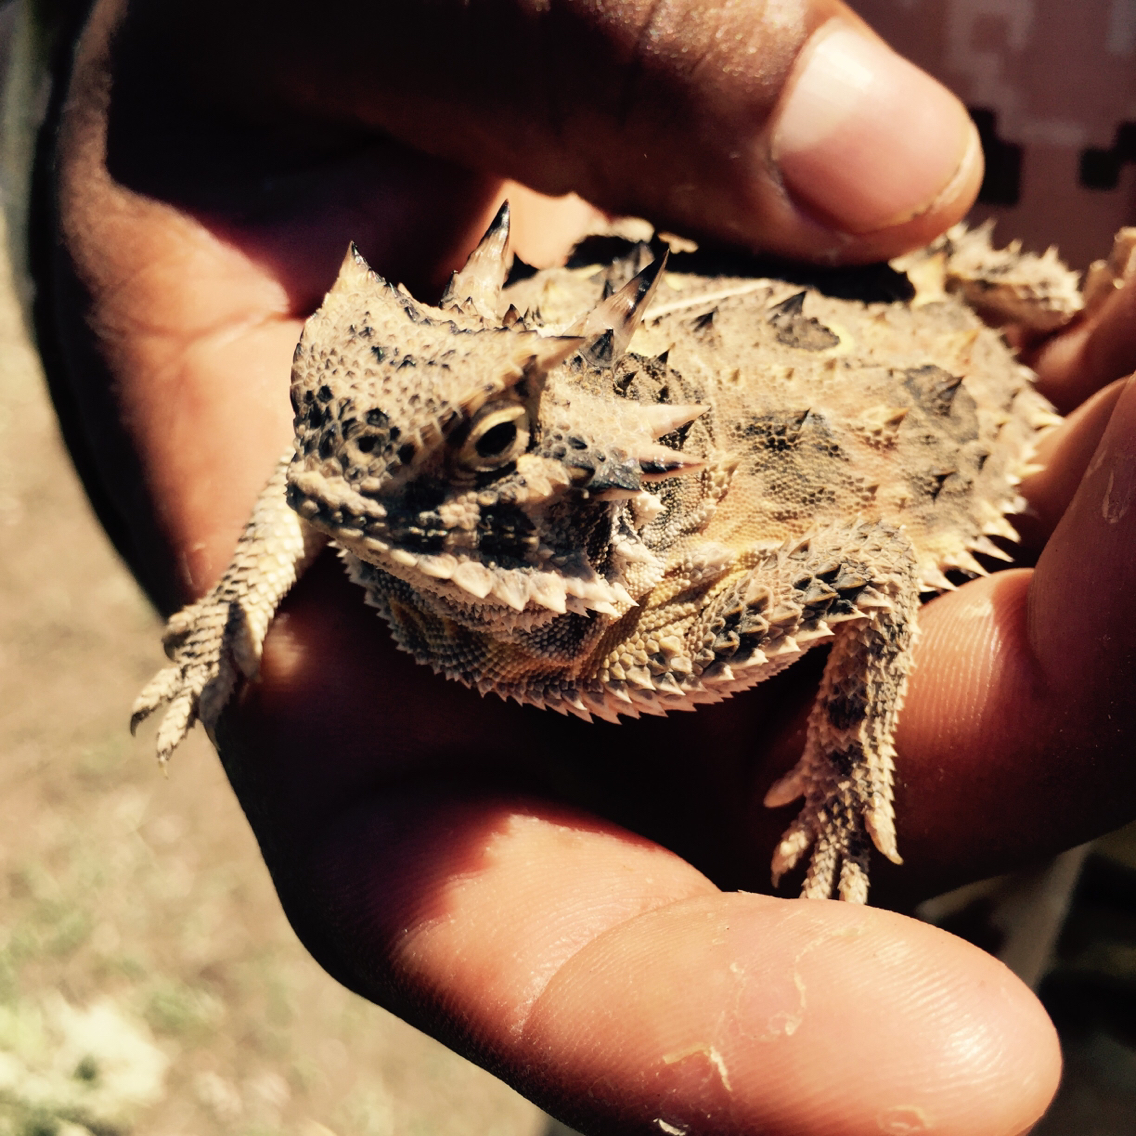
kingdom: Animalia
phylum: Chordata
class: Squamata
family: Phrynosomatidae
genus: Phrynosoma
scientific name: Phrynosoma cornutum
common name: Texas horned lizard
